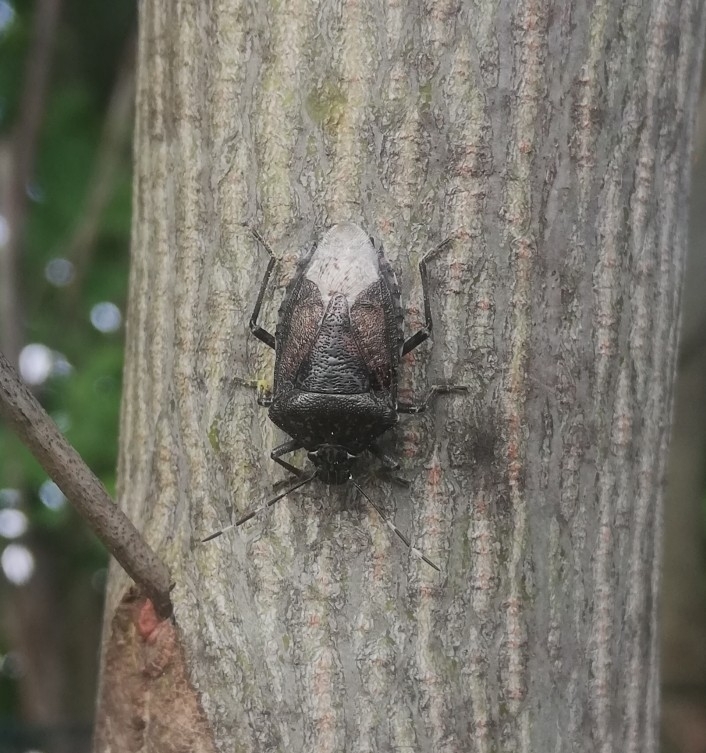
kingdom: Animalia
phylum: Arthropoda
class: Insecta
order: Hemiptera
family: Pentatomidae
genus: Rhaphigaster
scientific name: Rhaphigaster nebulosa
